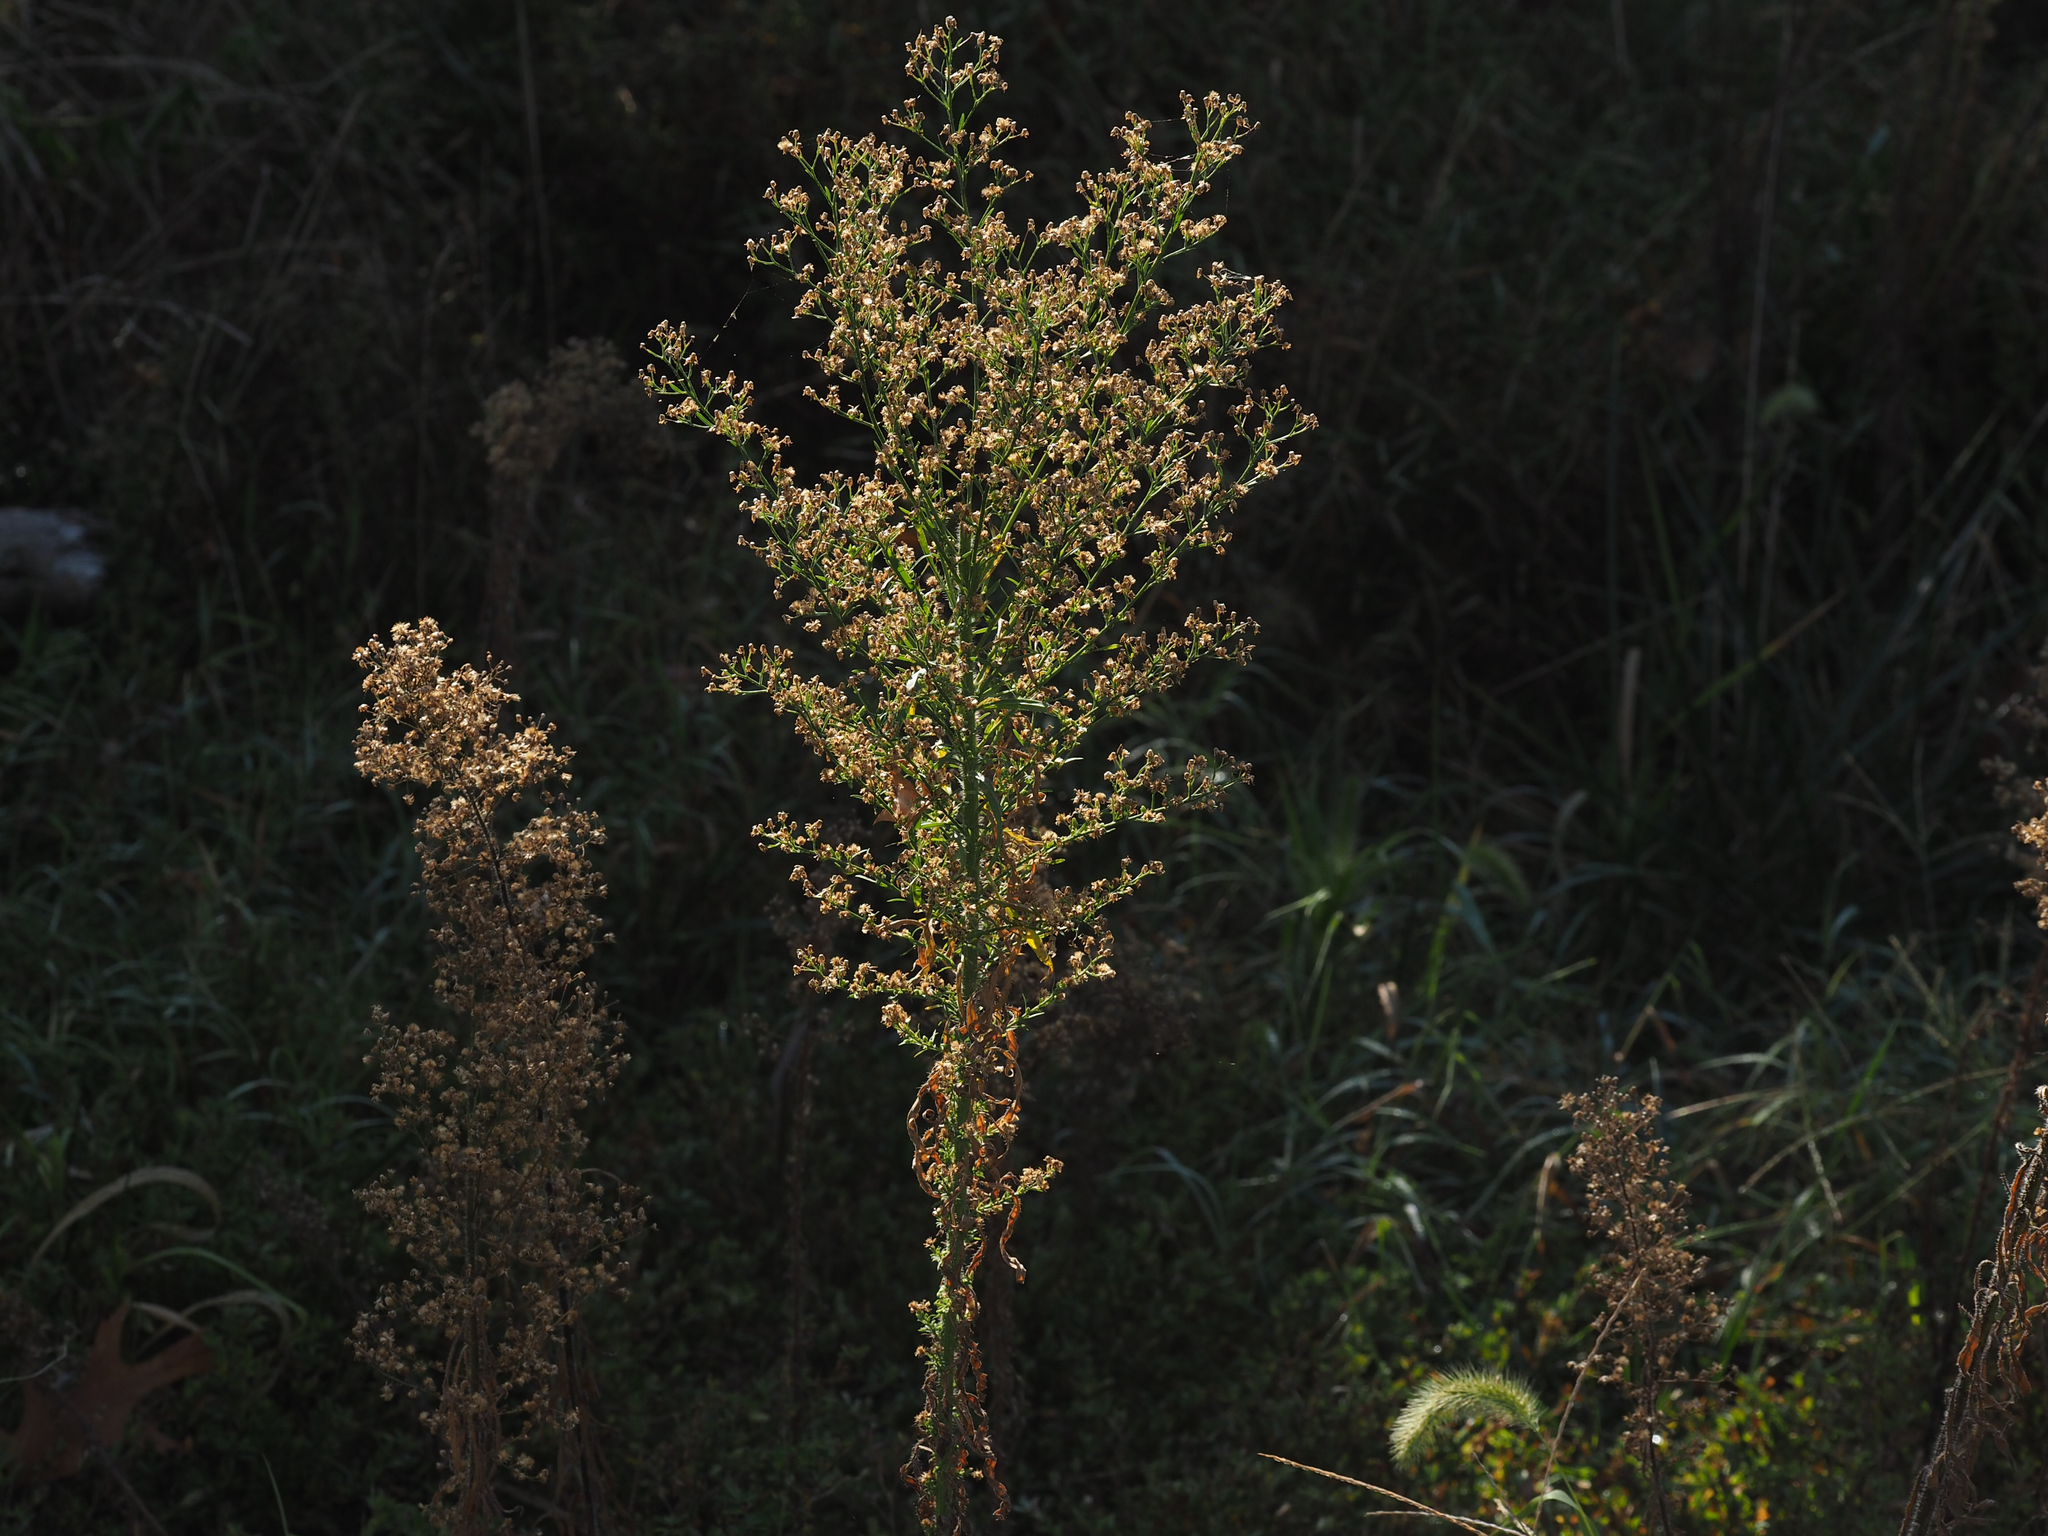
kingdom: Plantae
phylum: Tracheophyta
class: Magnoliopsida
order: Asterales
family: Asteraceae
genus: Erigeron
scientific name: Erigeron canadensis
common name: Canadian fleabane
